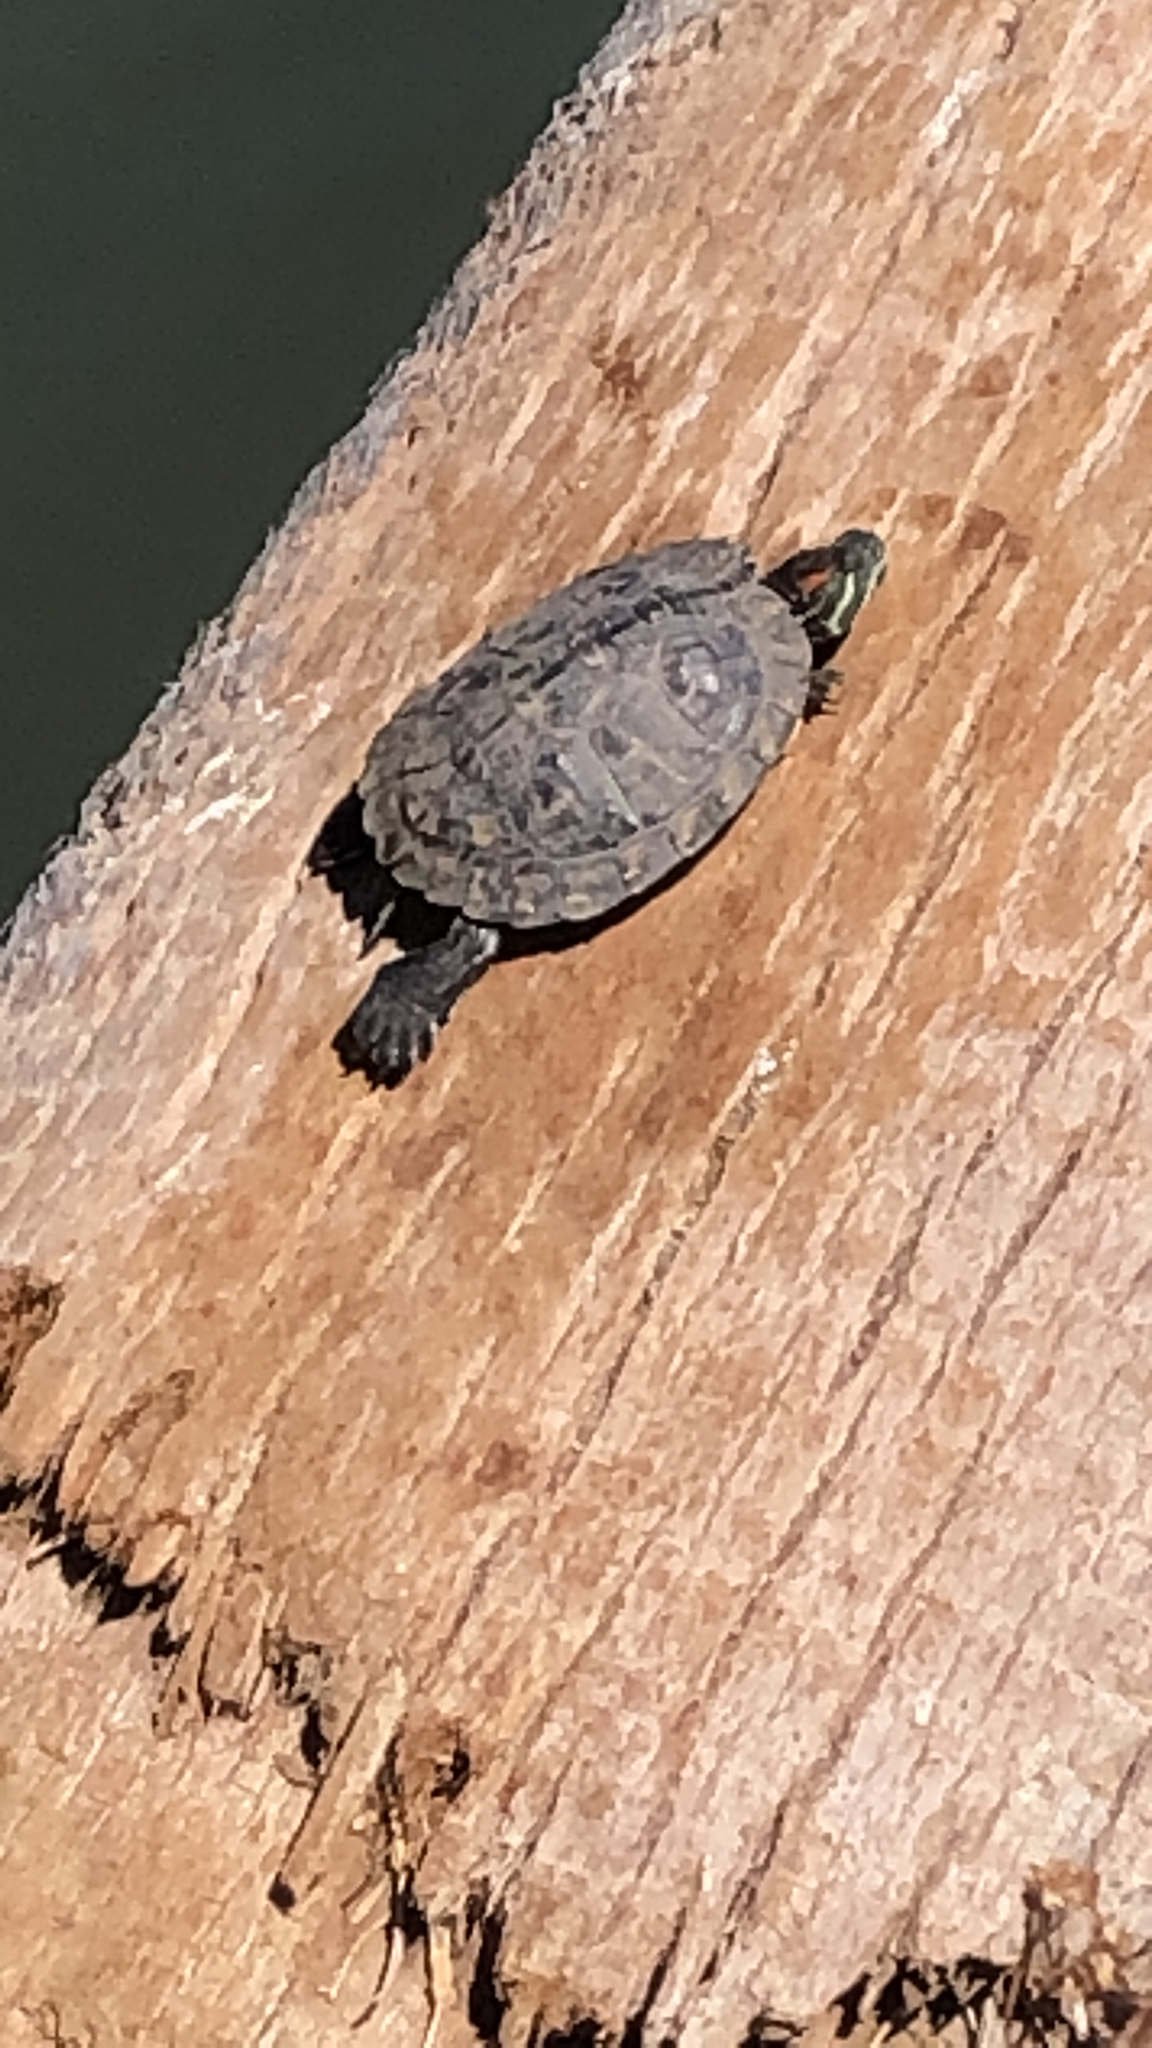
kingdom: Animalia
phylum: Chordata
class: Testudines
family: Emydidae
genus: Trachemys
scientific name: Trachemys scripta
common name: Slider
